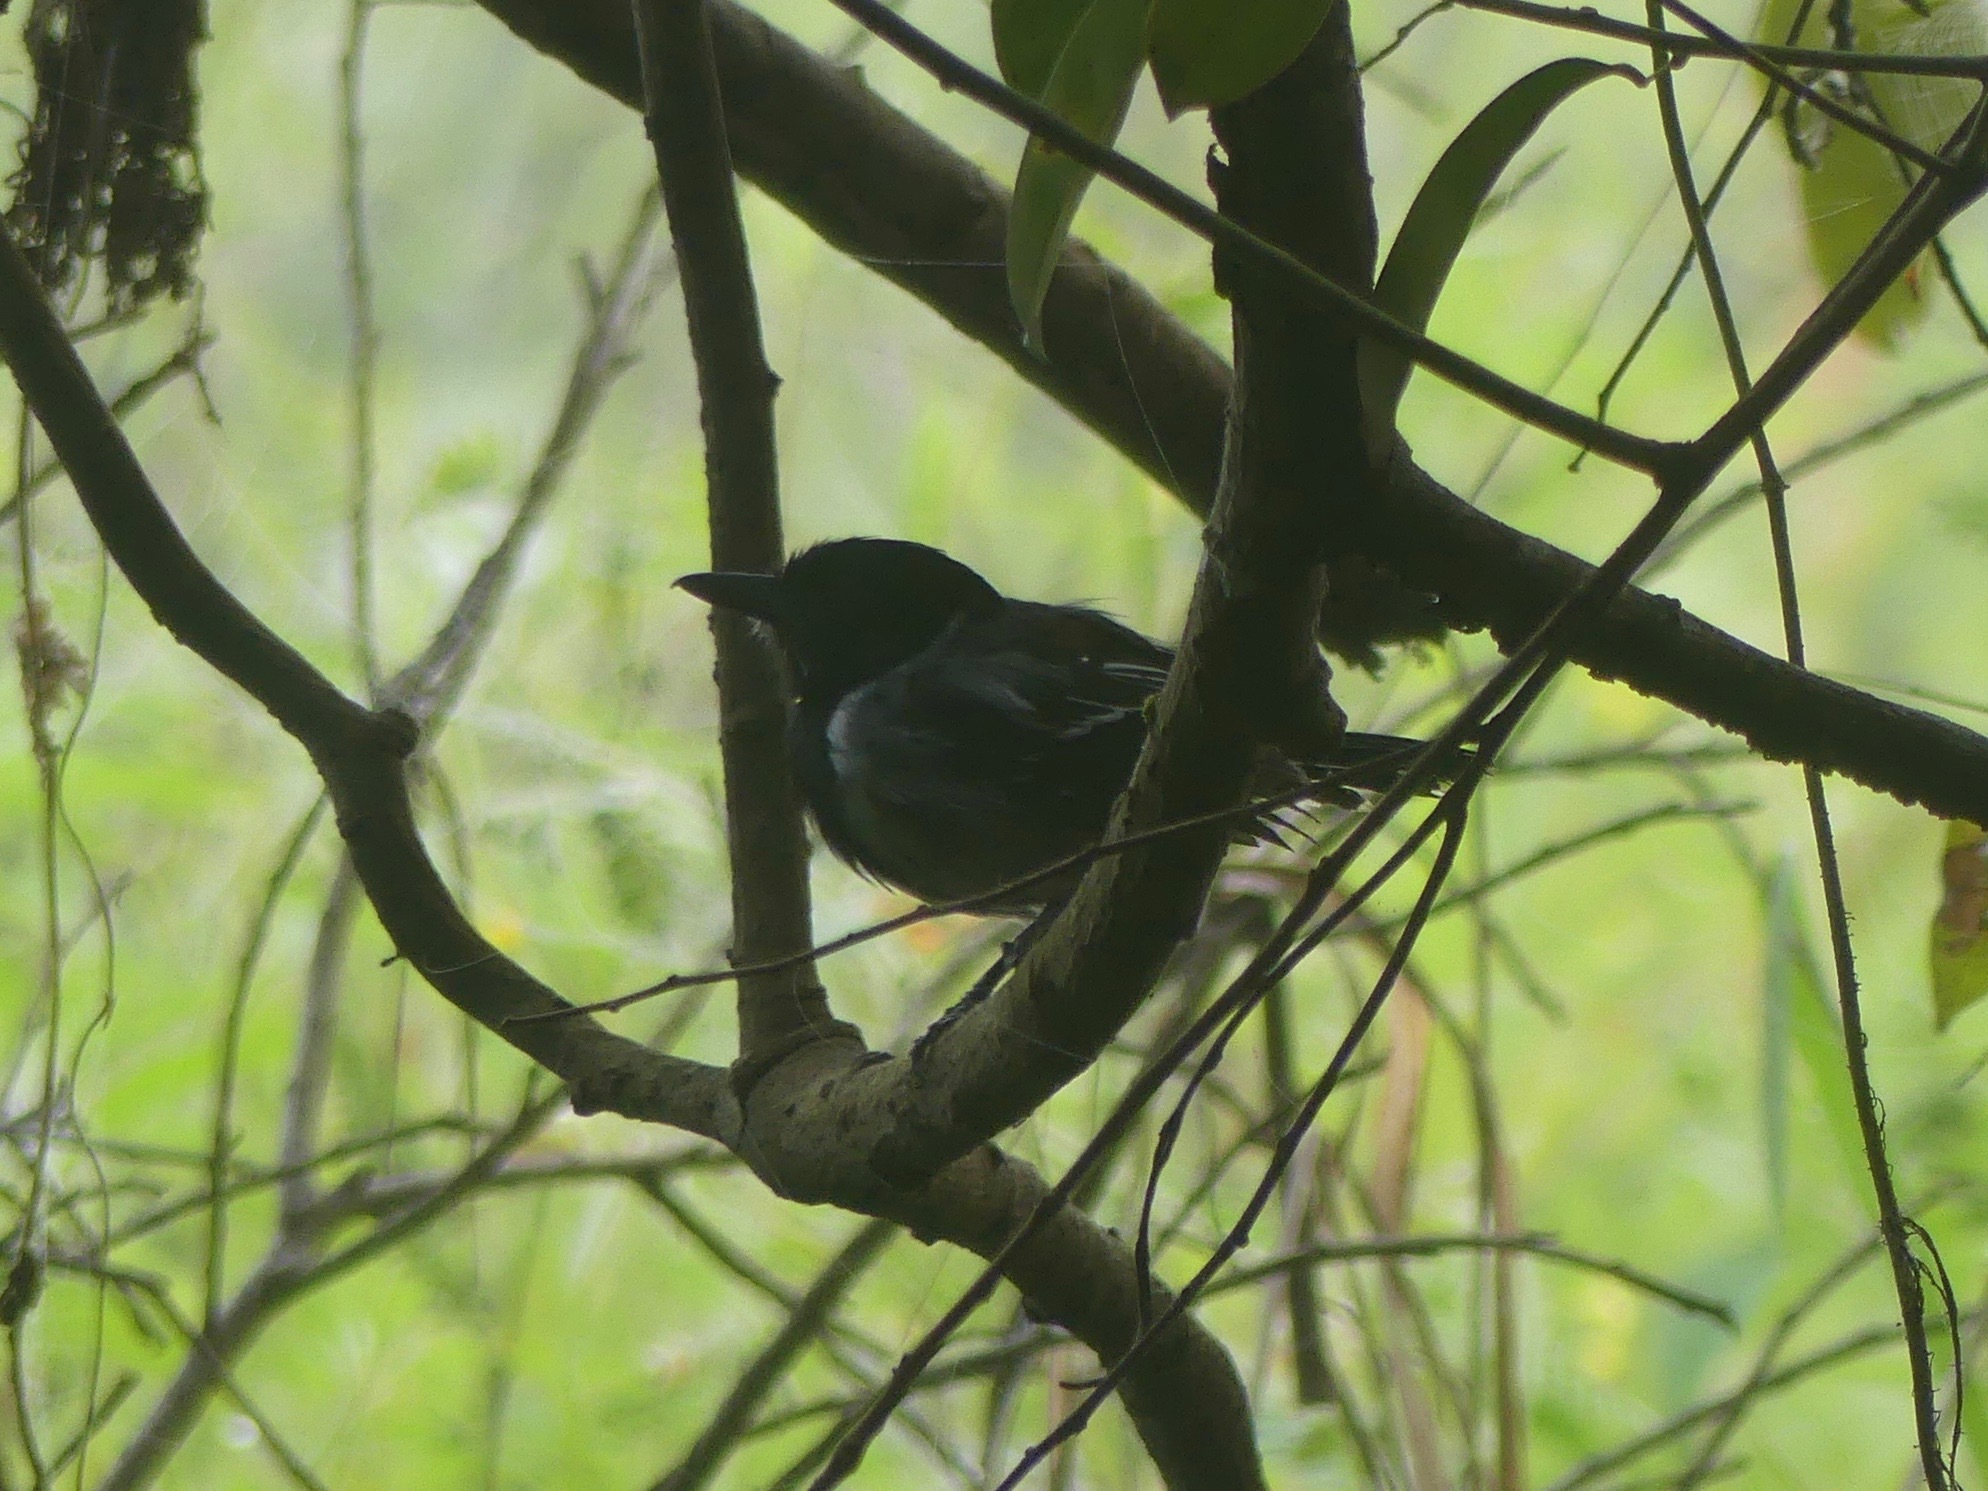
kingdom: Animalia
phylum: Chordata
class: Aves
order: Passeriformes
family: Thamnophilidae
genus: Sakesphorus
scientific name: Sakesphorus canadensis
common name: Black-crested antshrike
